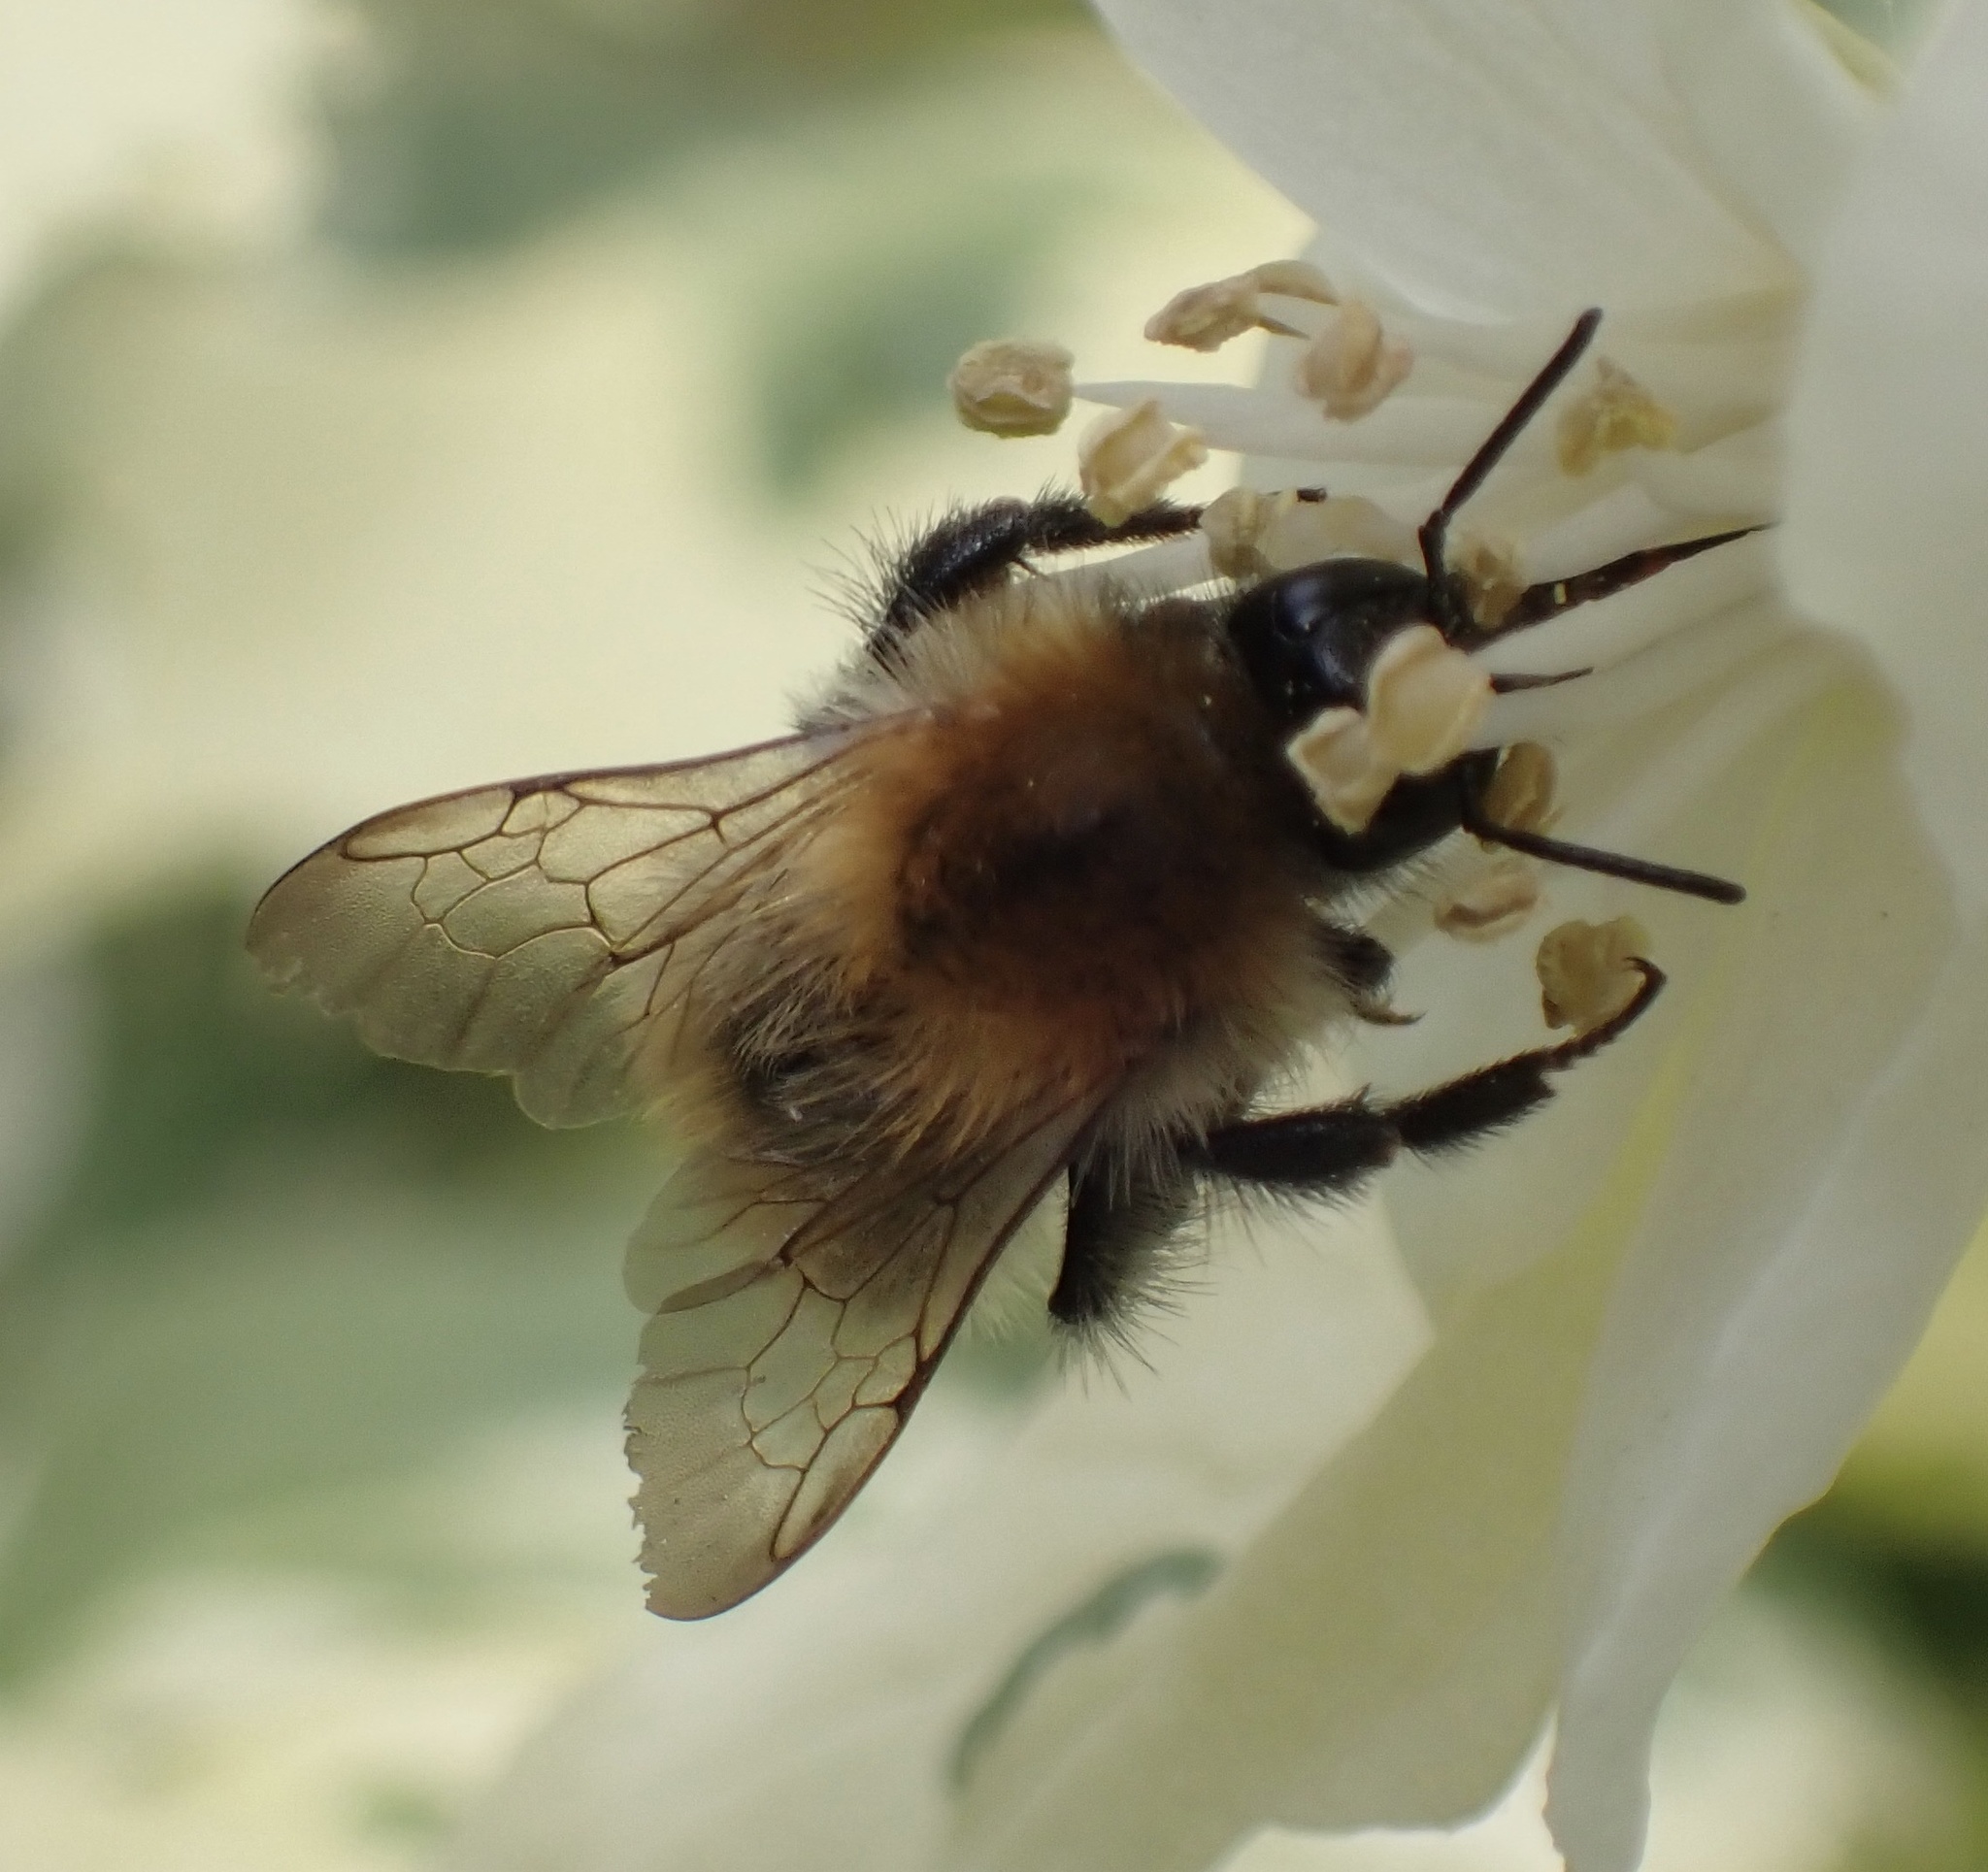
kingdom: Animalia
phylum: Arthropoda
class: Insecta
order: Hymenoptera
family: Apidae
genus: Bombus
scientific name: Bombus pascuorum
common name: Common carder bee
